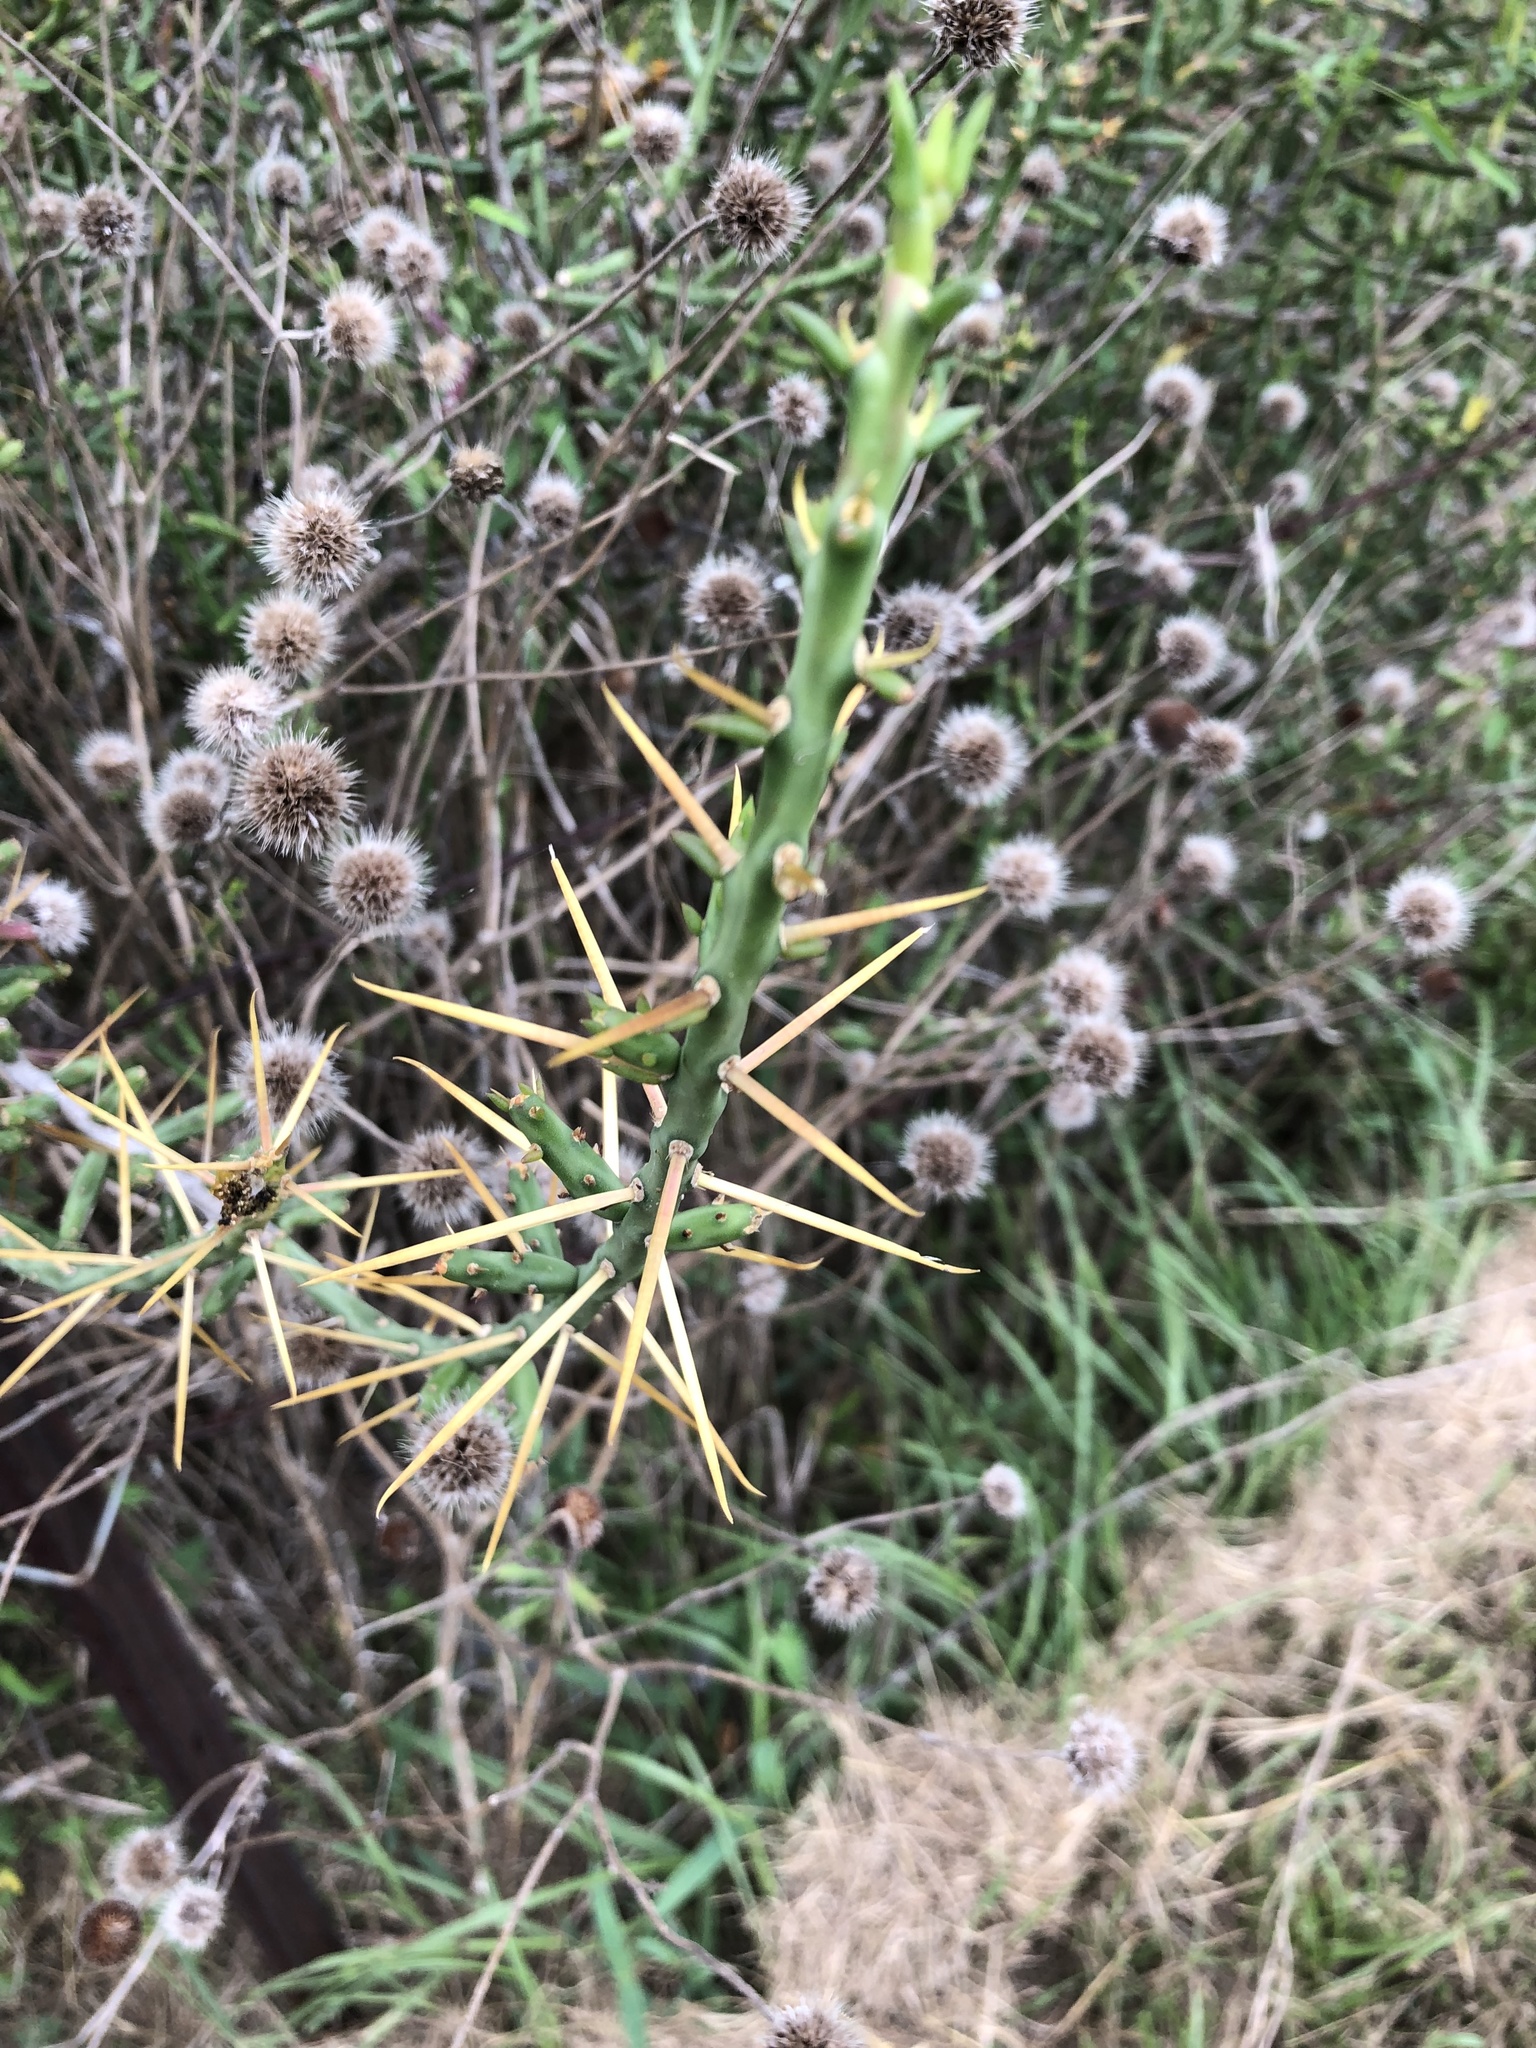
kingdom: Plantae
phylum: Tracheophyta
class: Magnoliopsida
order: Caryophyllales
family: Cactaceae
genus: Cylindropuntia
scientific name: Cylindropuntia leptocaulis
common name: Christmas cactus
